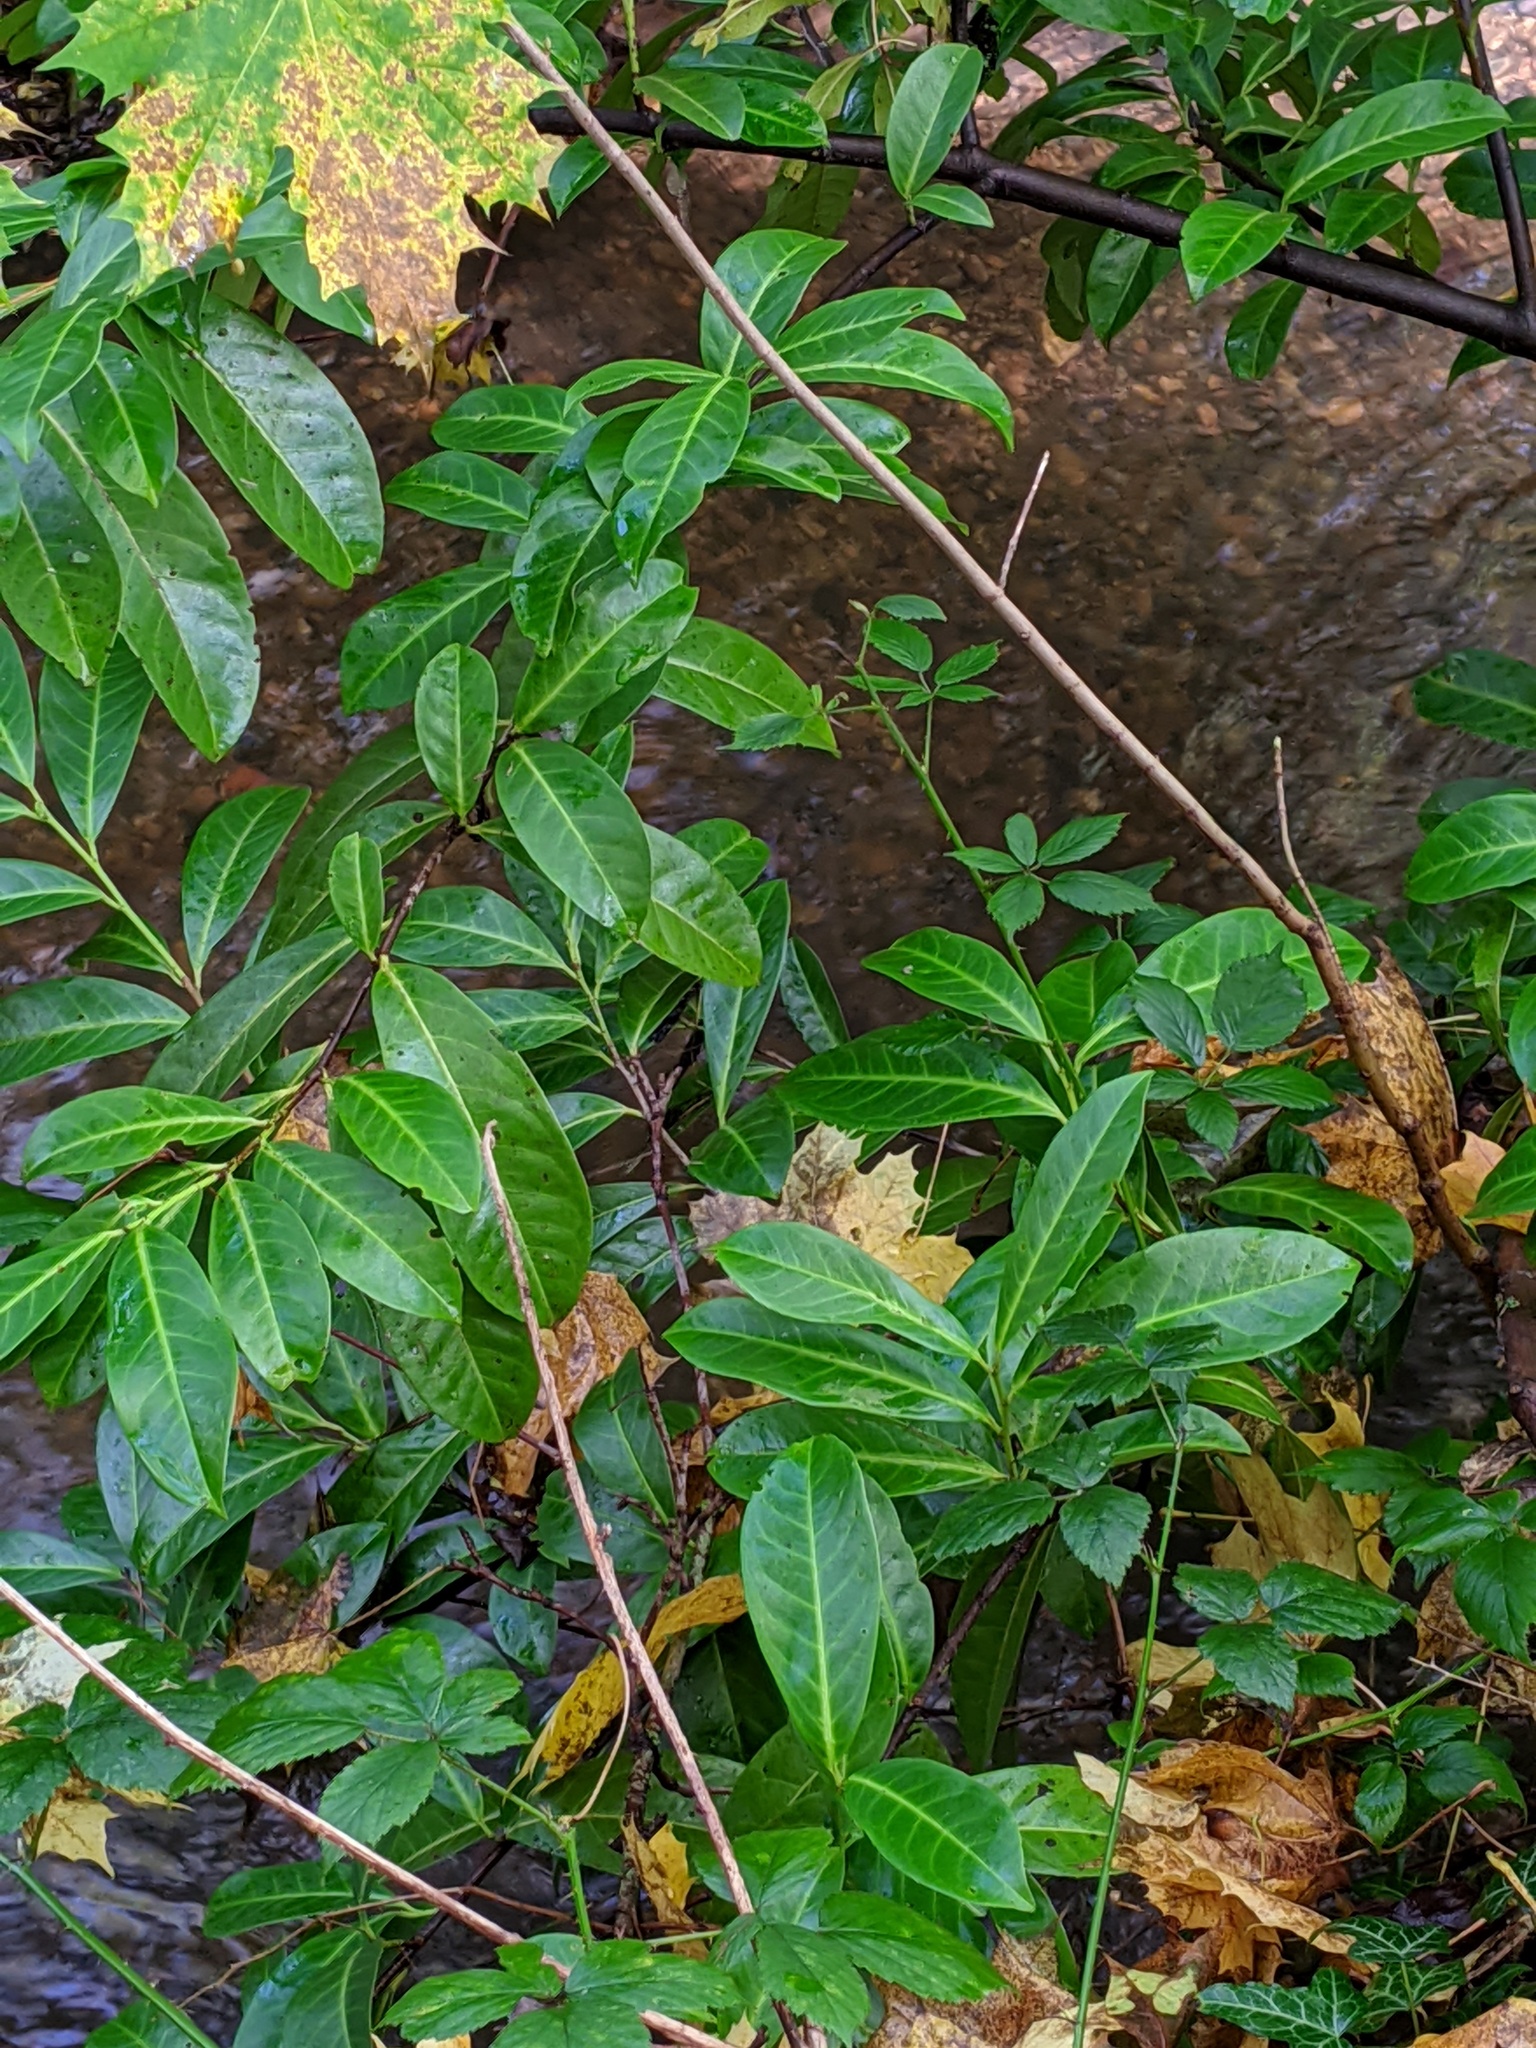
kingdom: Plantae
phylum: Tracheophyta
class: Magnoliopsida
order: Rosales
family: Rosaceae
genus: Prunus
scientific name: Prunus laurocerasus
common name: Cherry laurel
